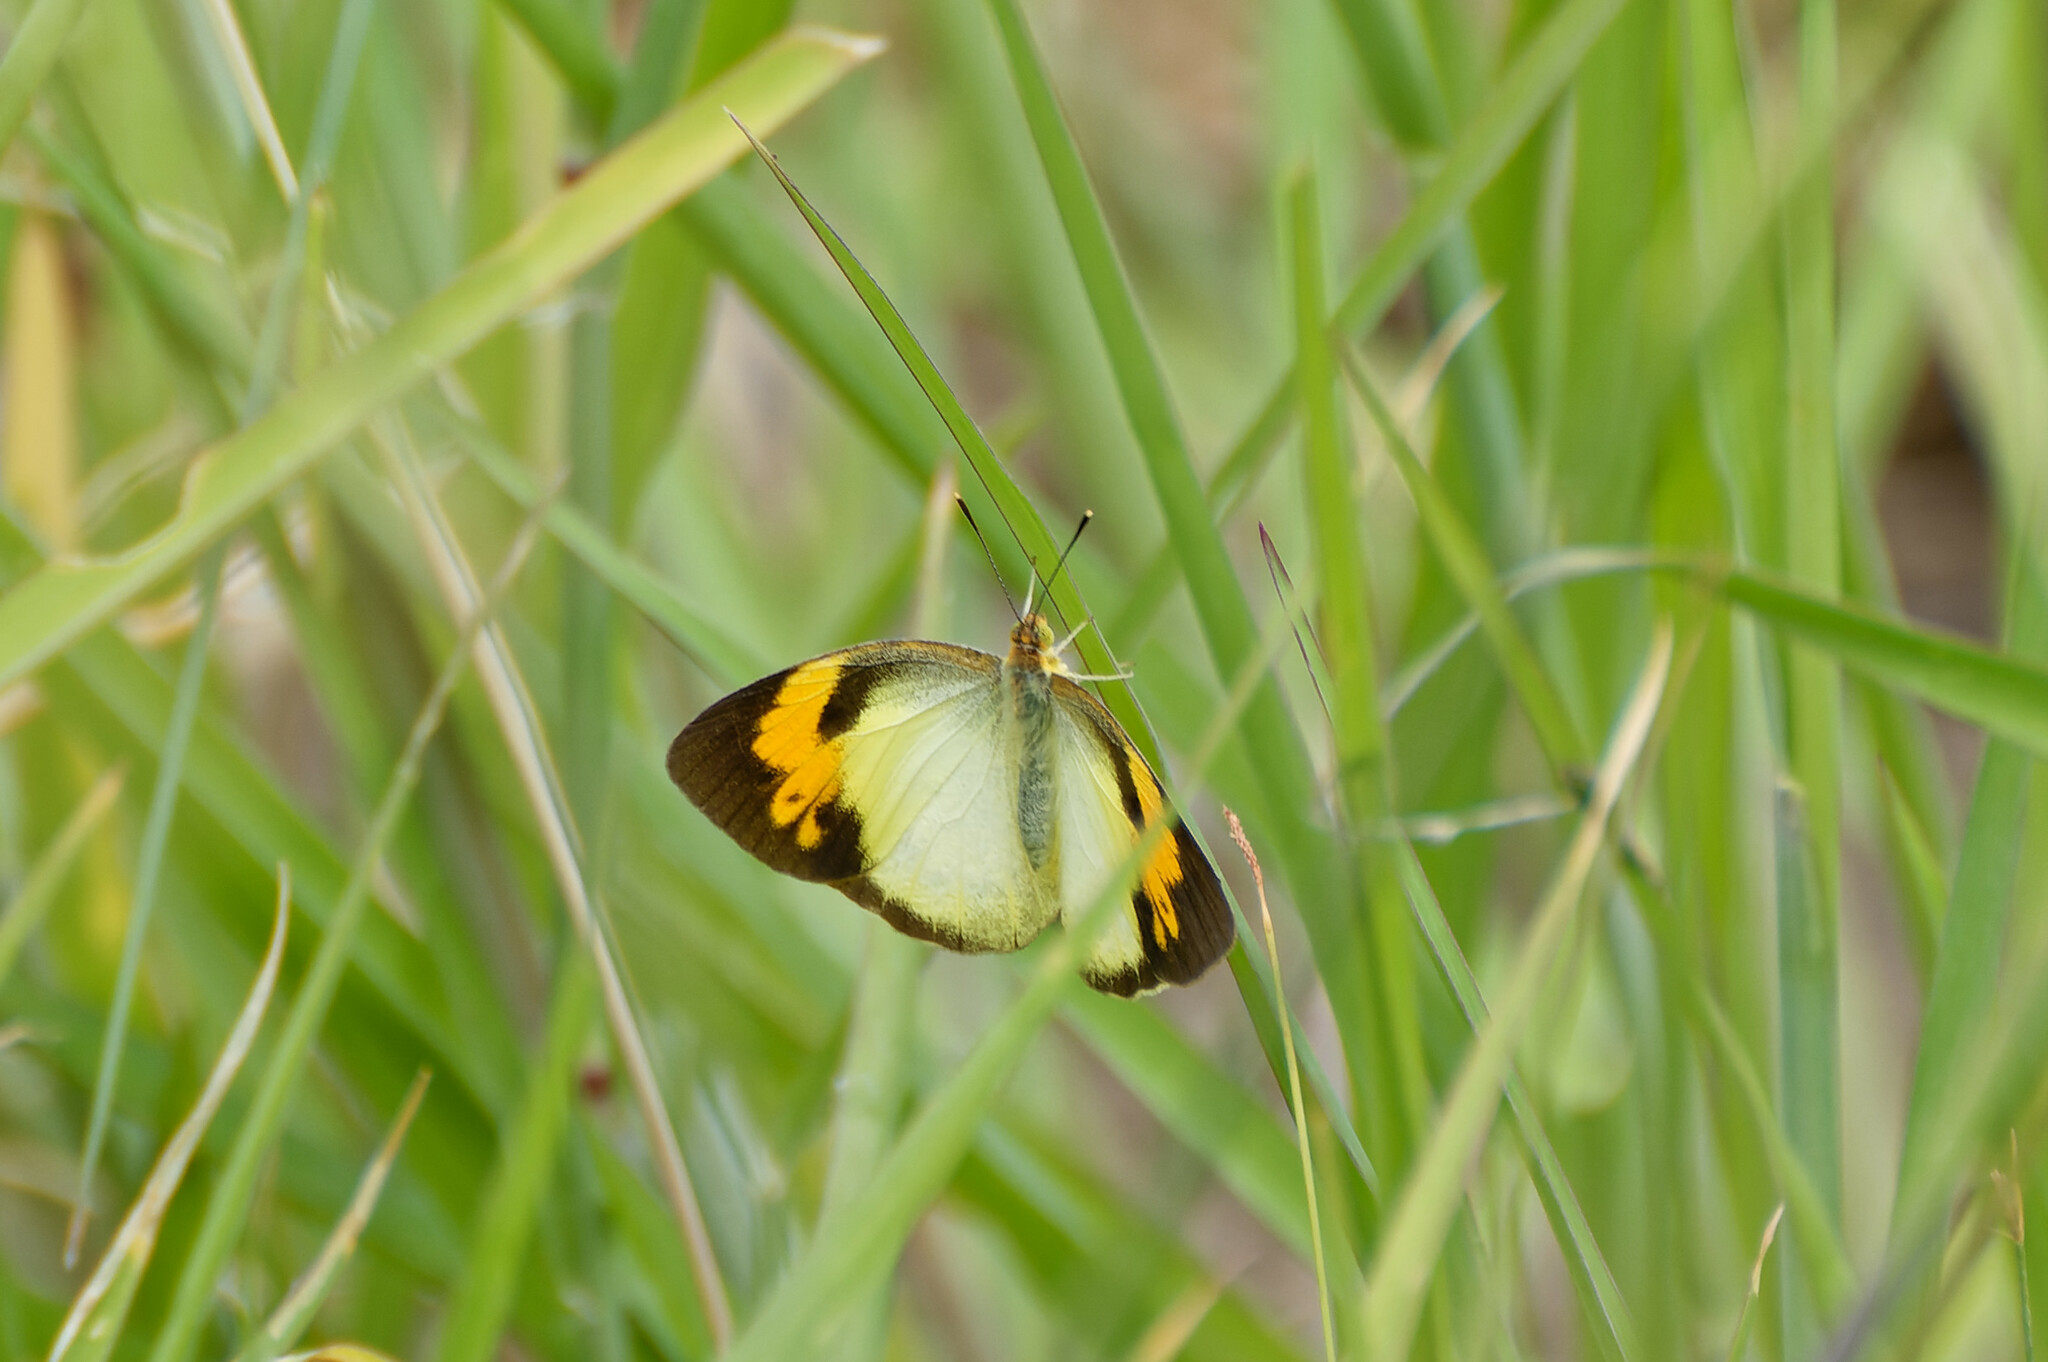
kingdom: Animalia
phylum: Arthropoda
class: Insecta
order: Lepidoptera
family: Pieridae
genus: Ixias
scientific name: Ixias pyrene
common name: Yellow orange tip
